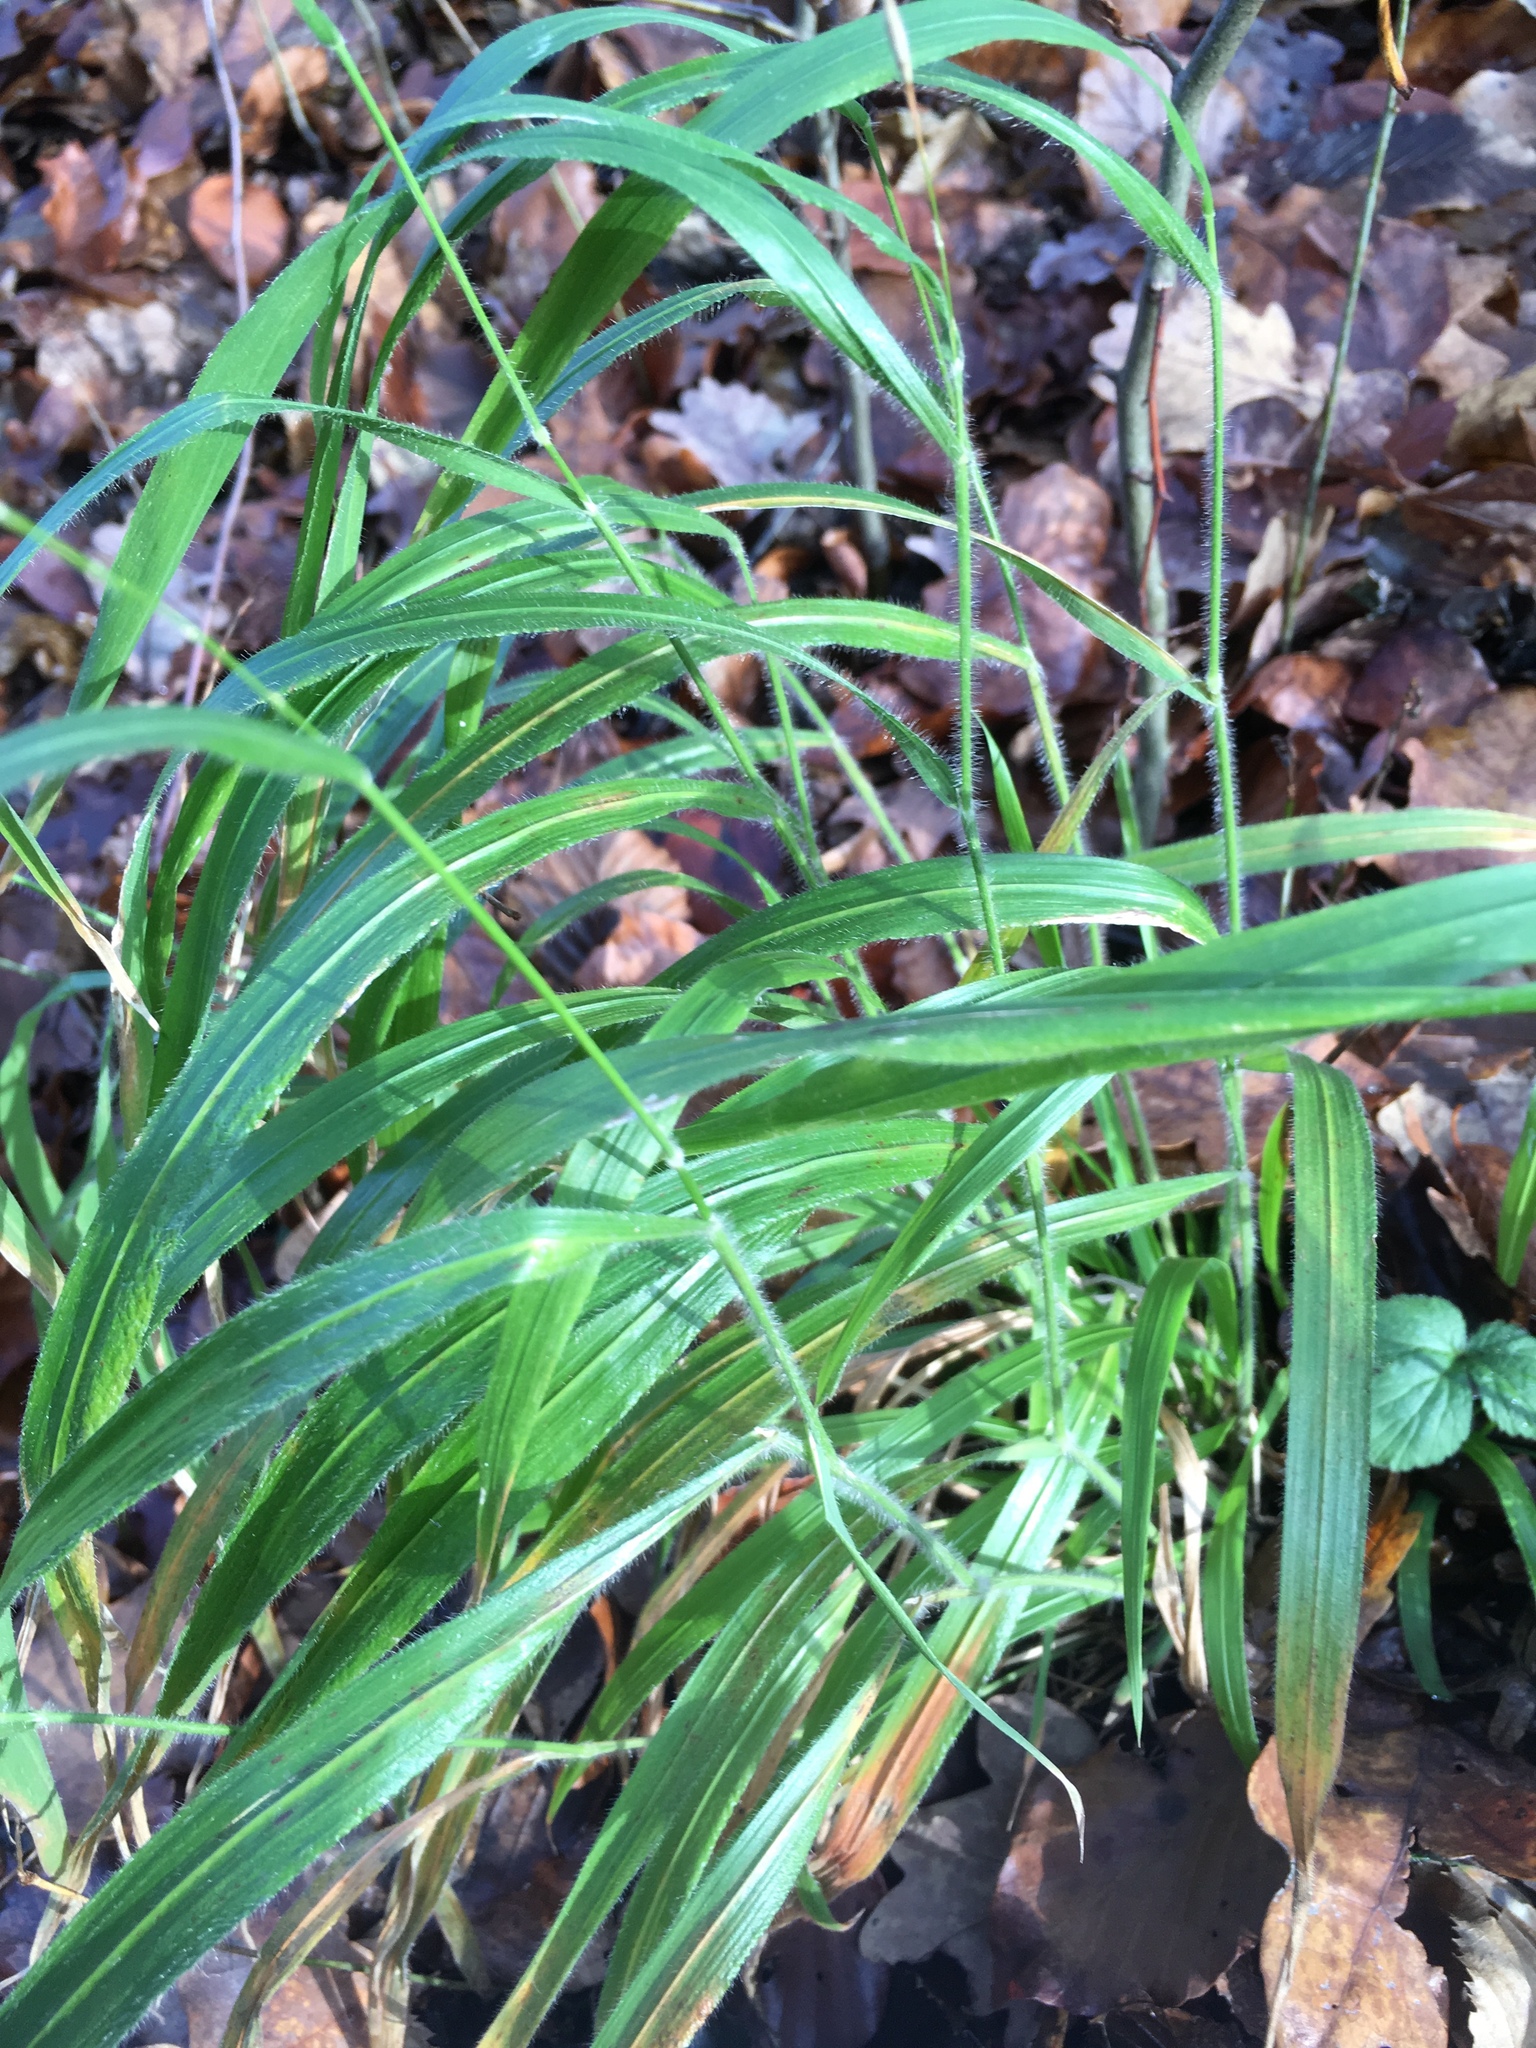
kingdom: Plantae
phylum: Tracheophyta
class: Liliopsida
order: Poales
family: Poaceae
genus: Brachypodium
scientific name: Brachypodium sylvaticum
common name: False-brome
